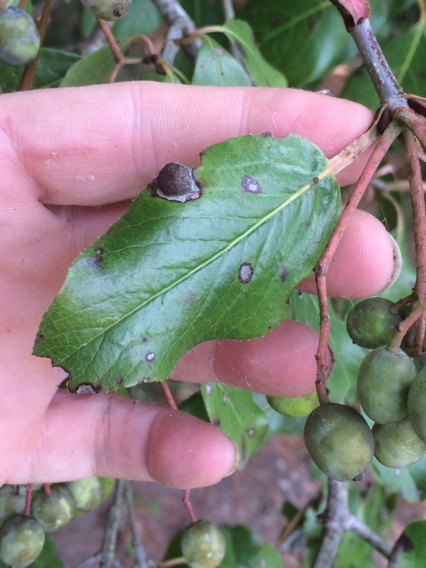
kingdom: Plantae
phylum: Tracheophyta
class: Magnoliopsida
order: Dipsacales
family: Viburnaceae
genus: Viburnum
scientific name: Viburnum rufidulum
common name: Blue haw
